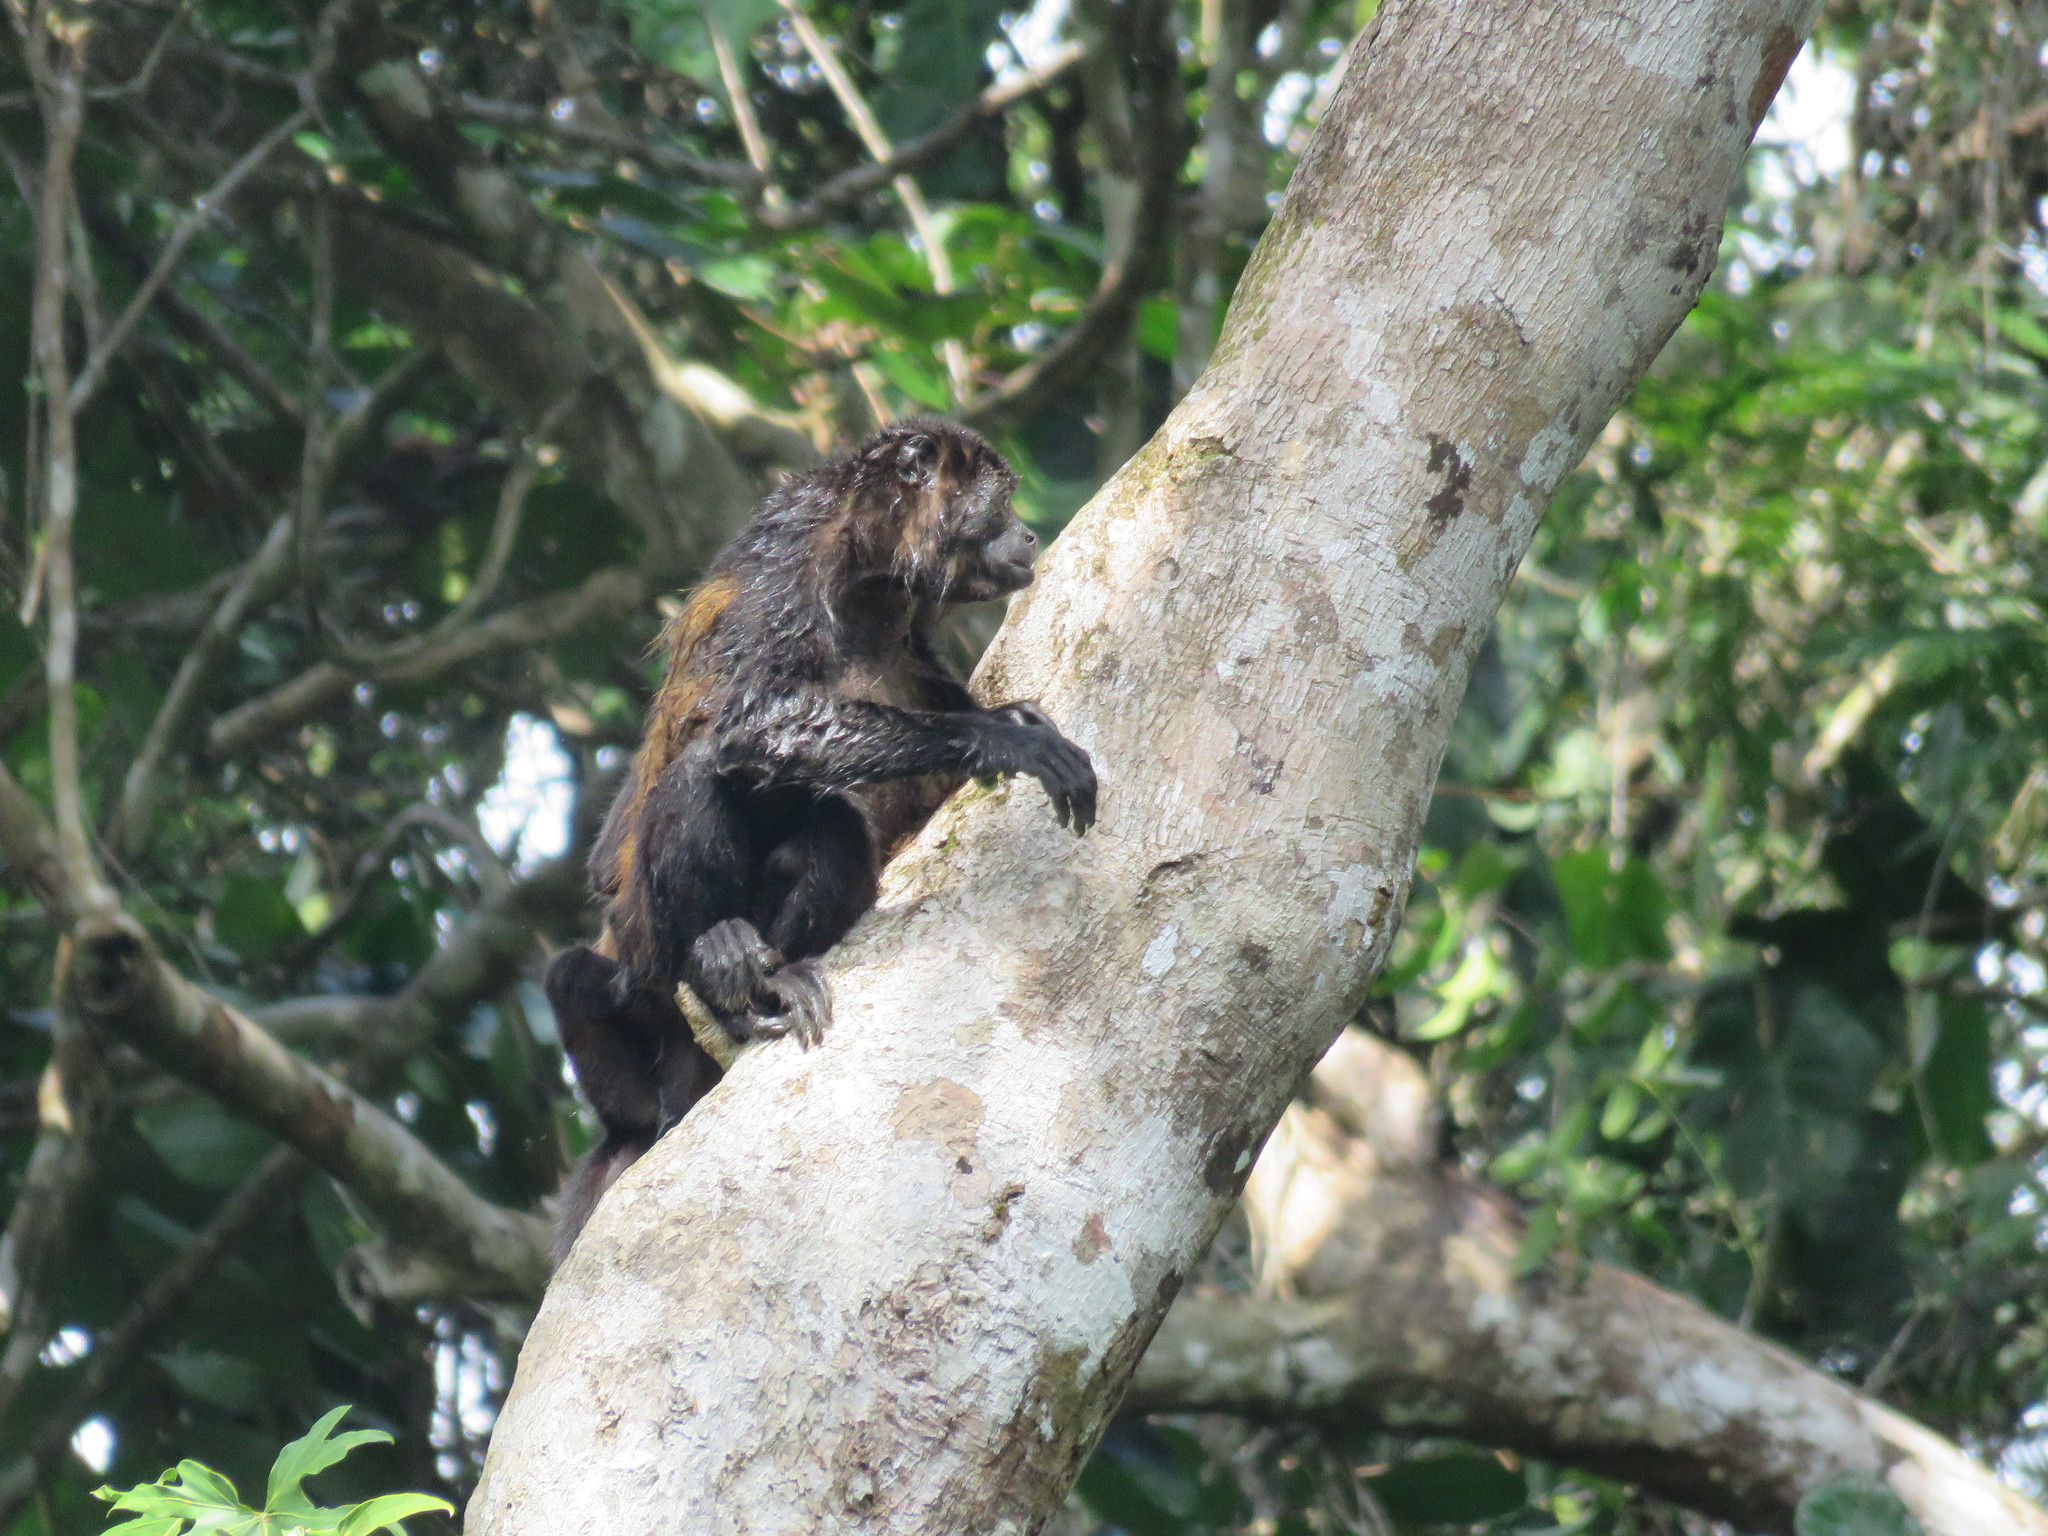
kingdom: Animalia
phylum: Chordata
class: Mammalia
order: Primates
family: Atelidae
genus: Alouatta
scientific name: Alouatta palliata
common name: Mantled howler
